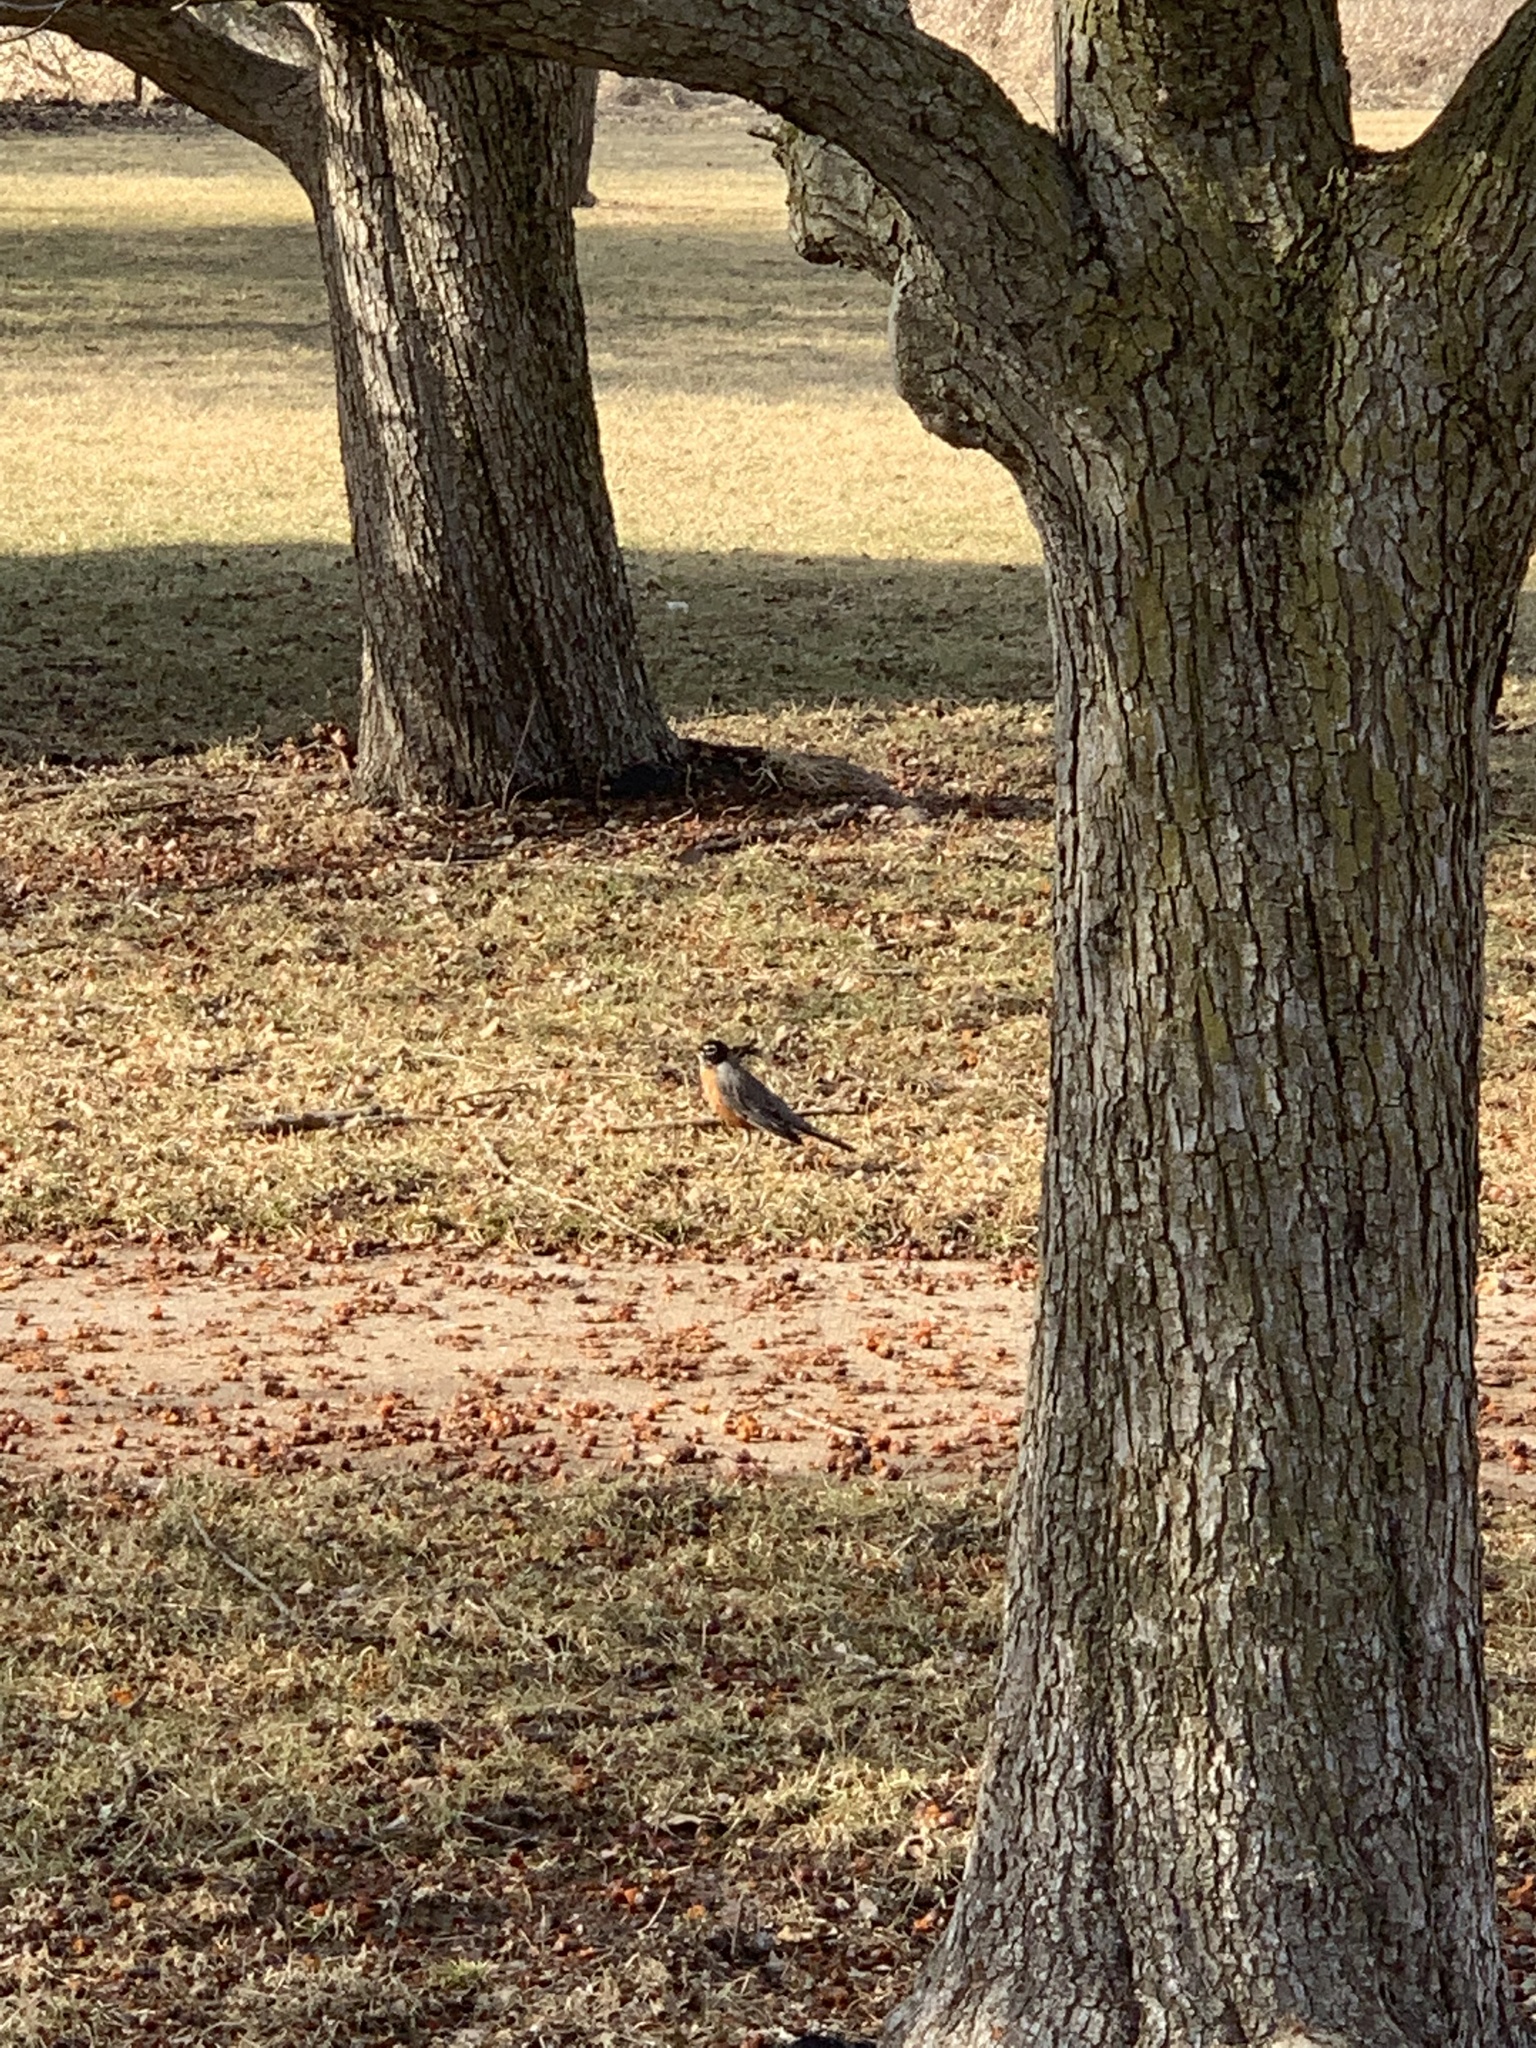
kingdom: Animalia
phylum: Chordata
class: Aves
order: Passeriformes
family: Turdidae
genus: Turdus
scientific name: Turdus migratorius
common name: American robin
